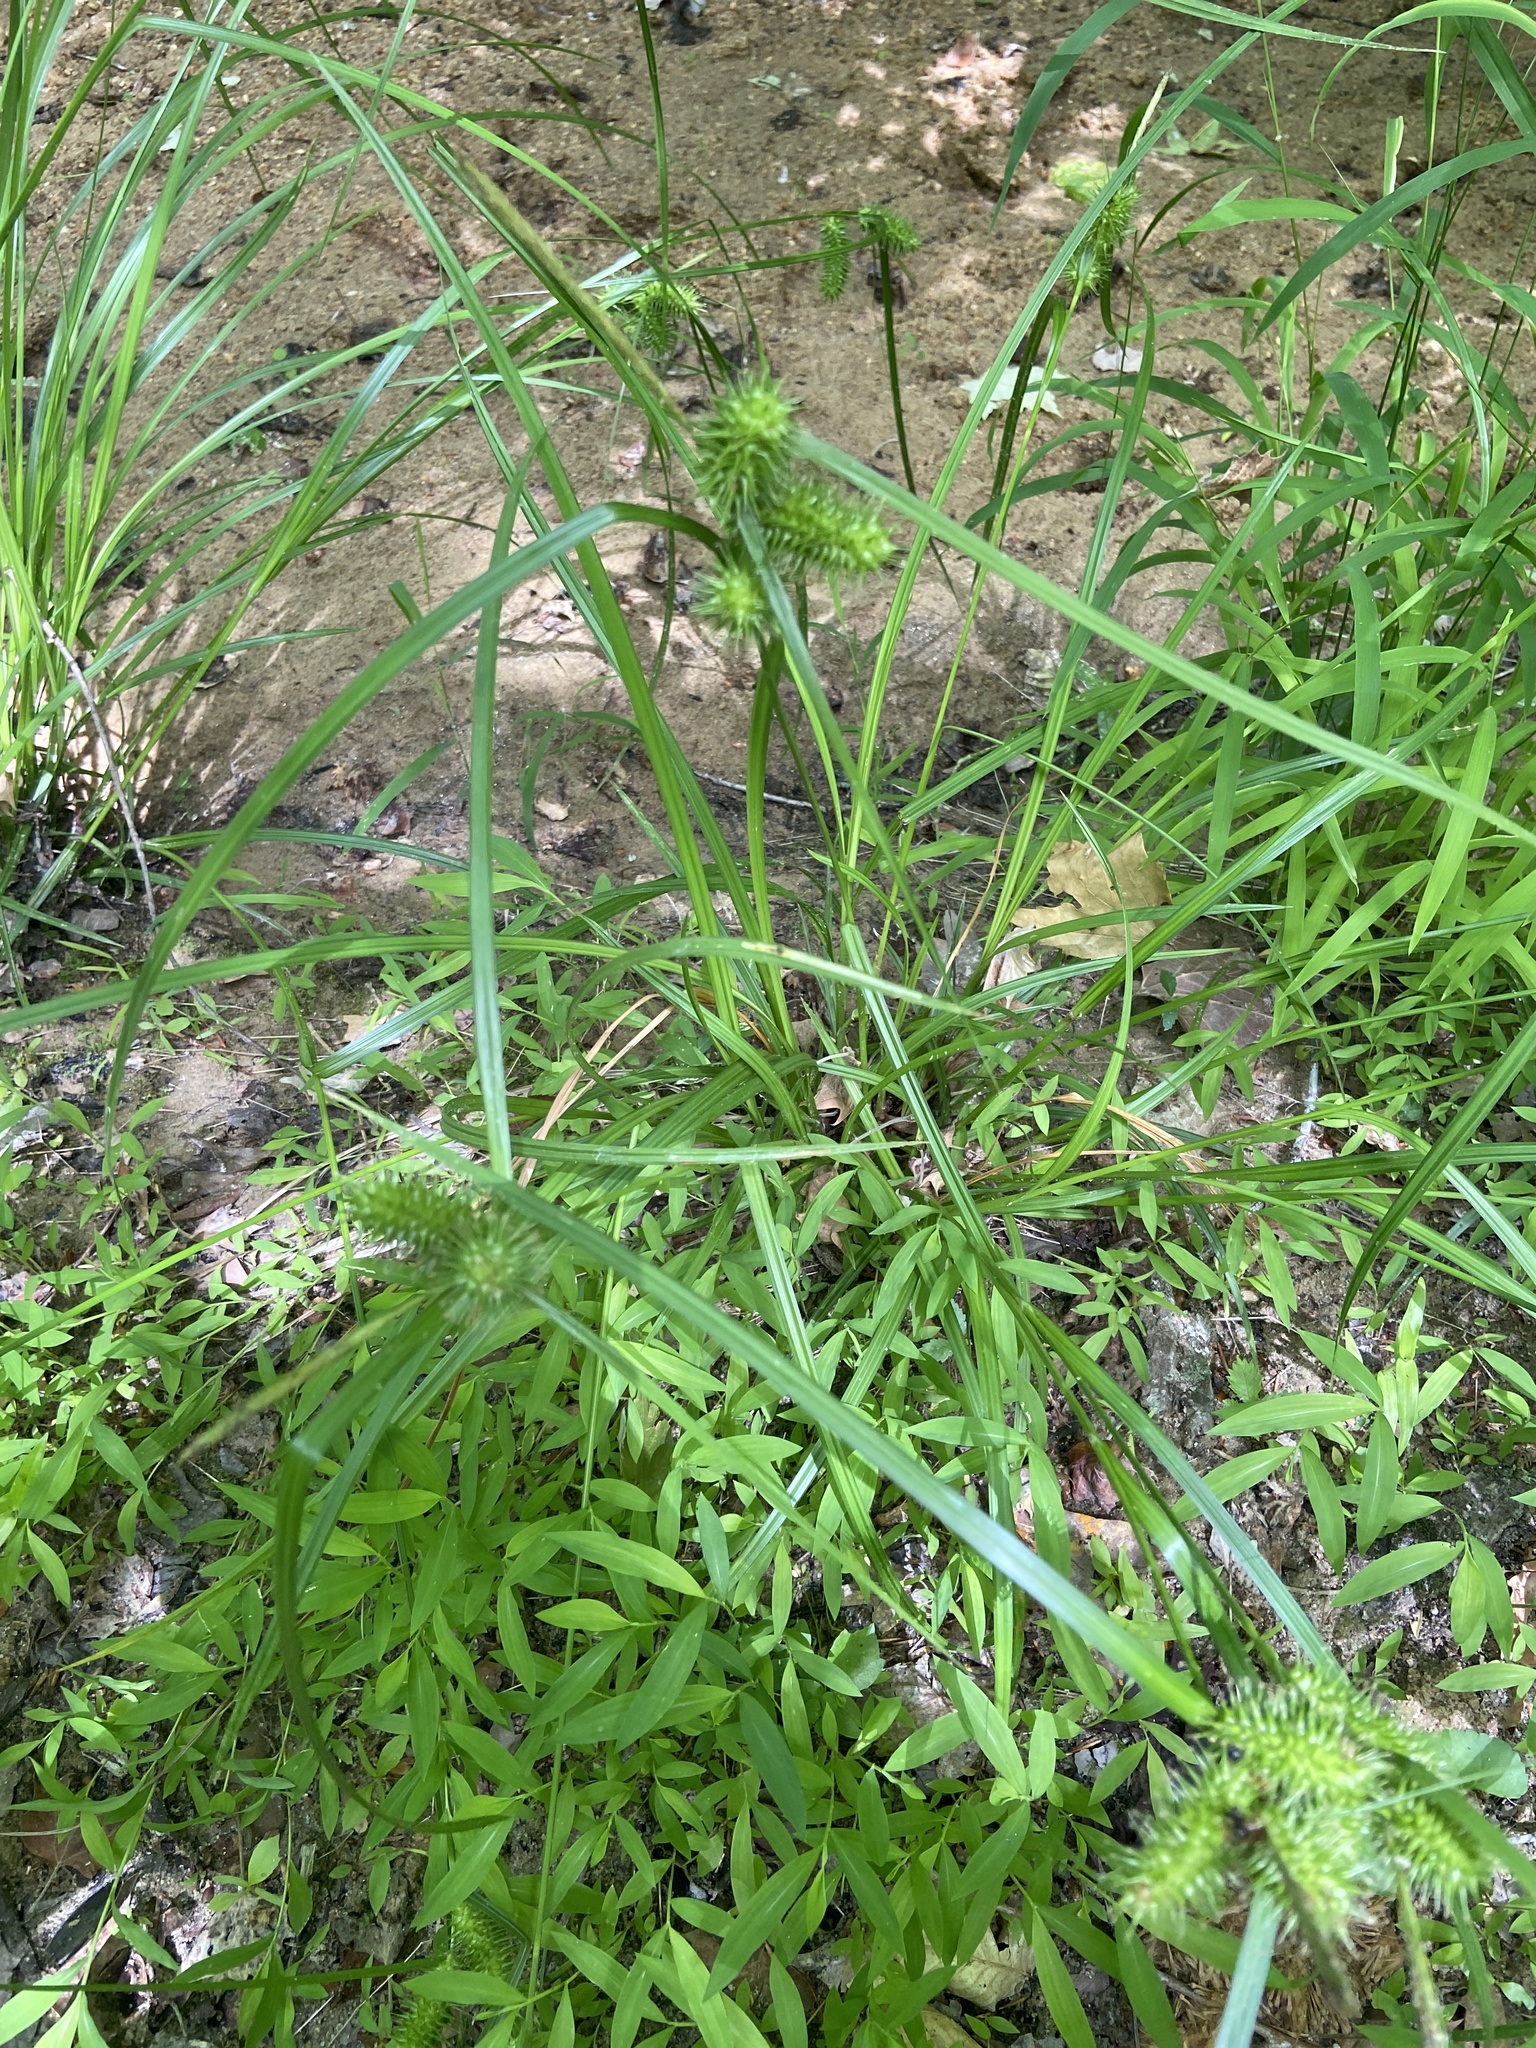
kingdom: Plantae
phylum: Tracheophyta
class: Liliopsida
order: Poales
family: Cyperaceae
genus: Carex
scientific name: Carex lurida
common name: Sallow sedge
